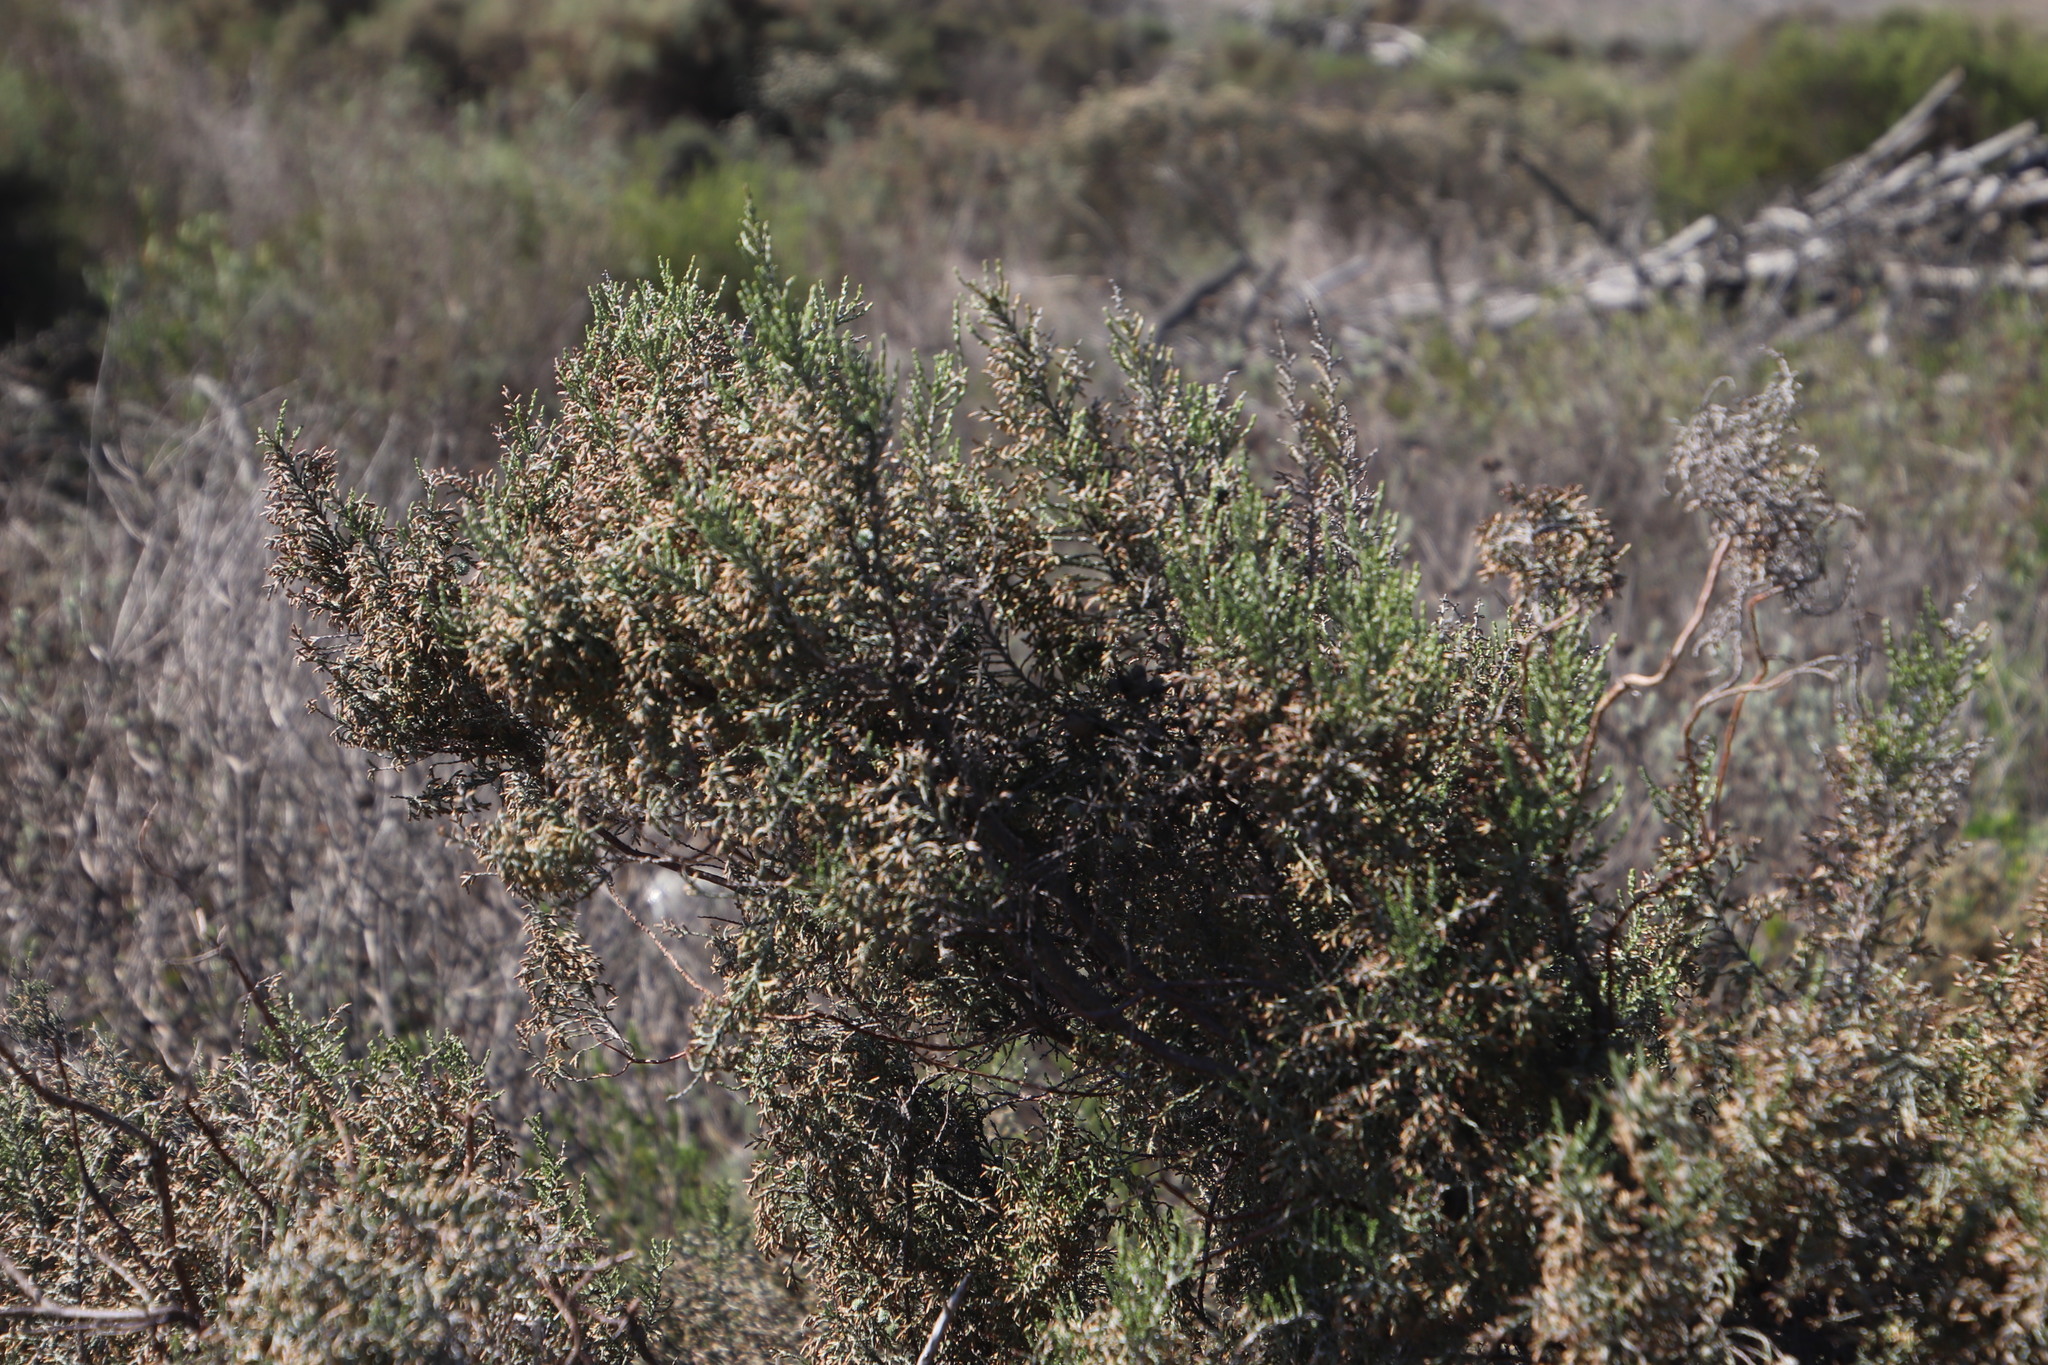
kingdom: Plantae
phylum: Tracheophyta
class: Magnoliopsida
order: Asterales
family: Asteraceae
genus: Dicerothamnus
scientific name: Dicerothamnus rhinocerotis
